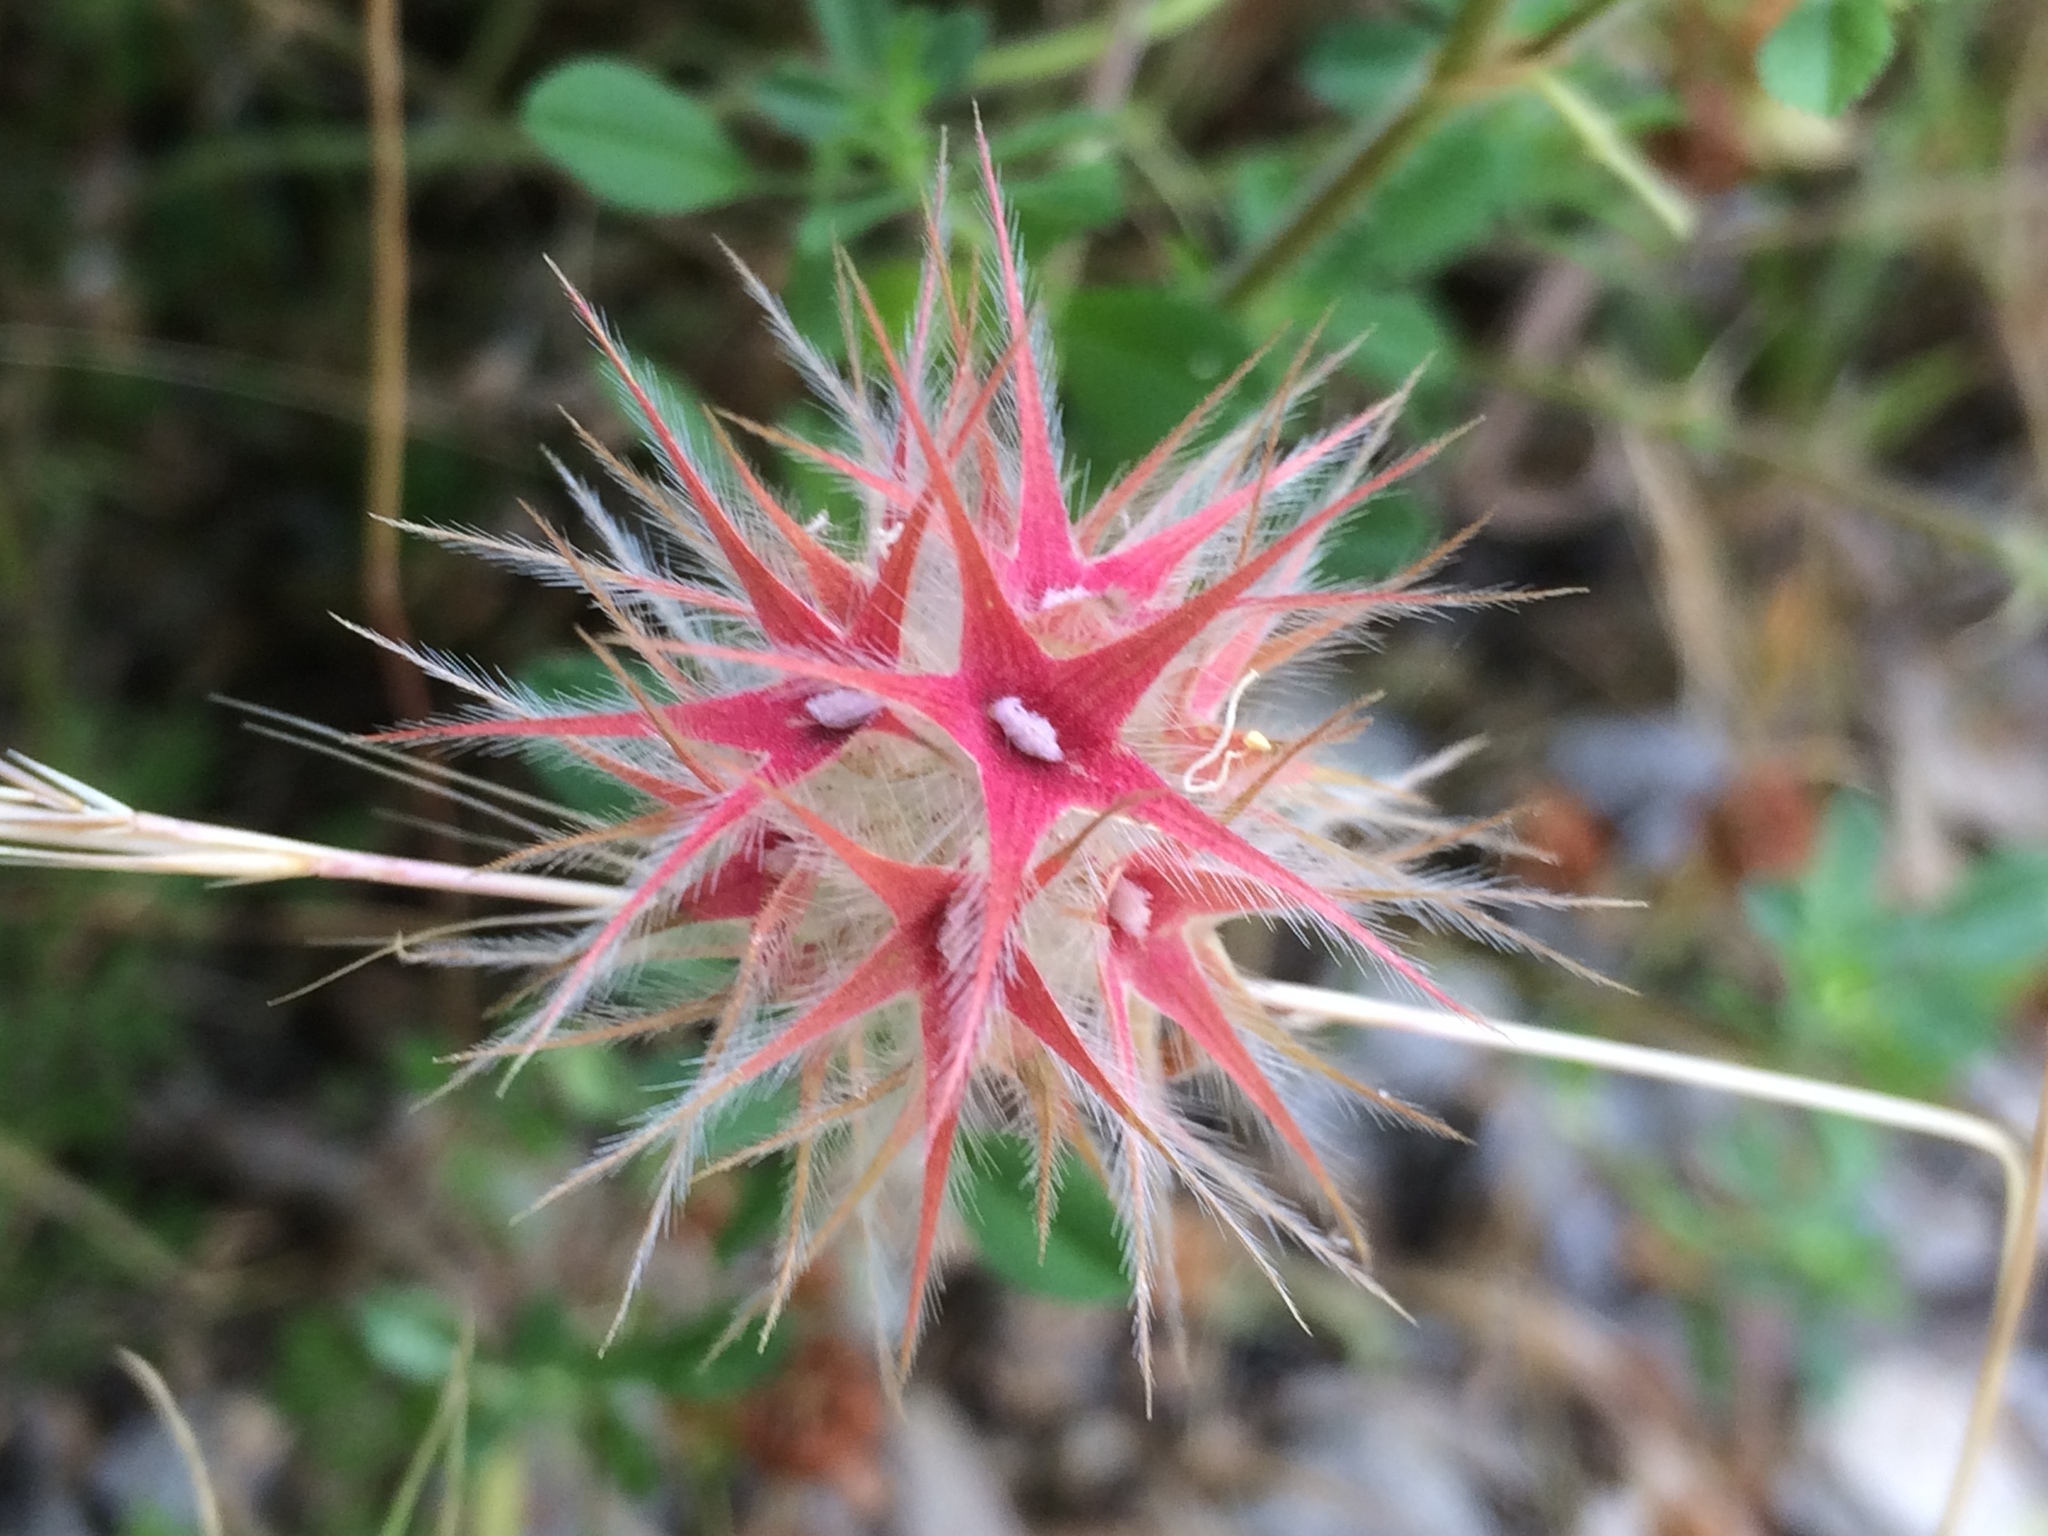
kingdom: Plantae
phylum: Tracheophyta
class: Magnoliopsida
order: Fabales
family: Fabaceae
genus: Trifolium
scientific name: Trifolium stellatum
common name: Starry clover
